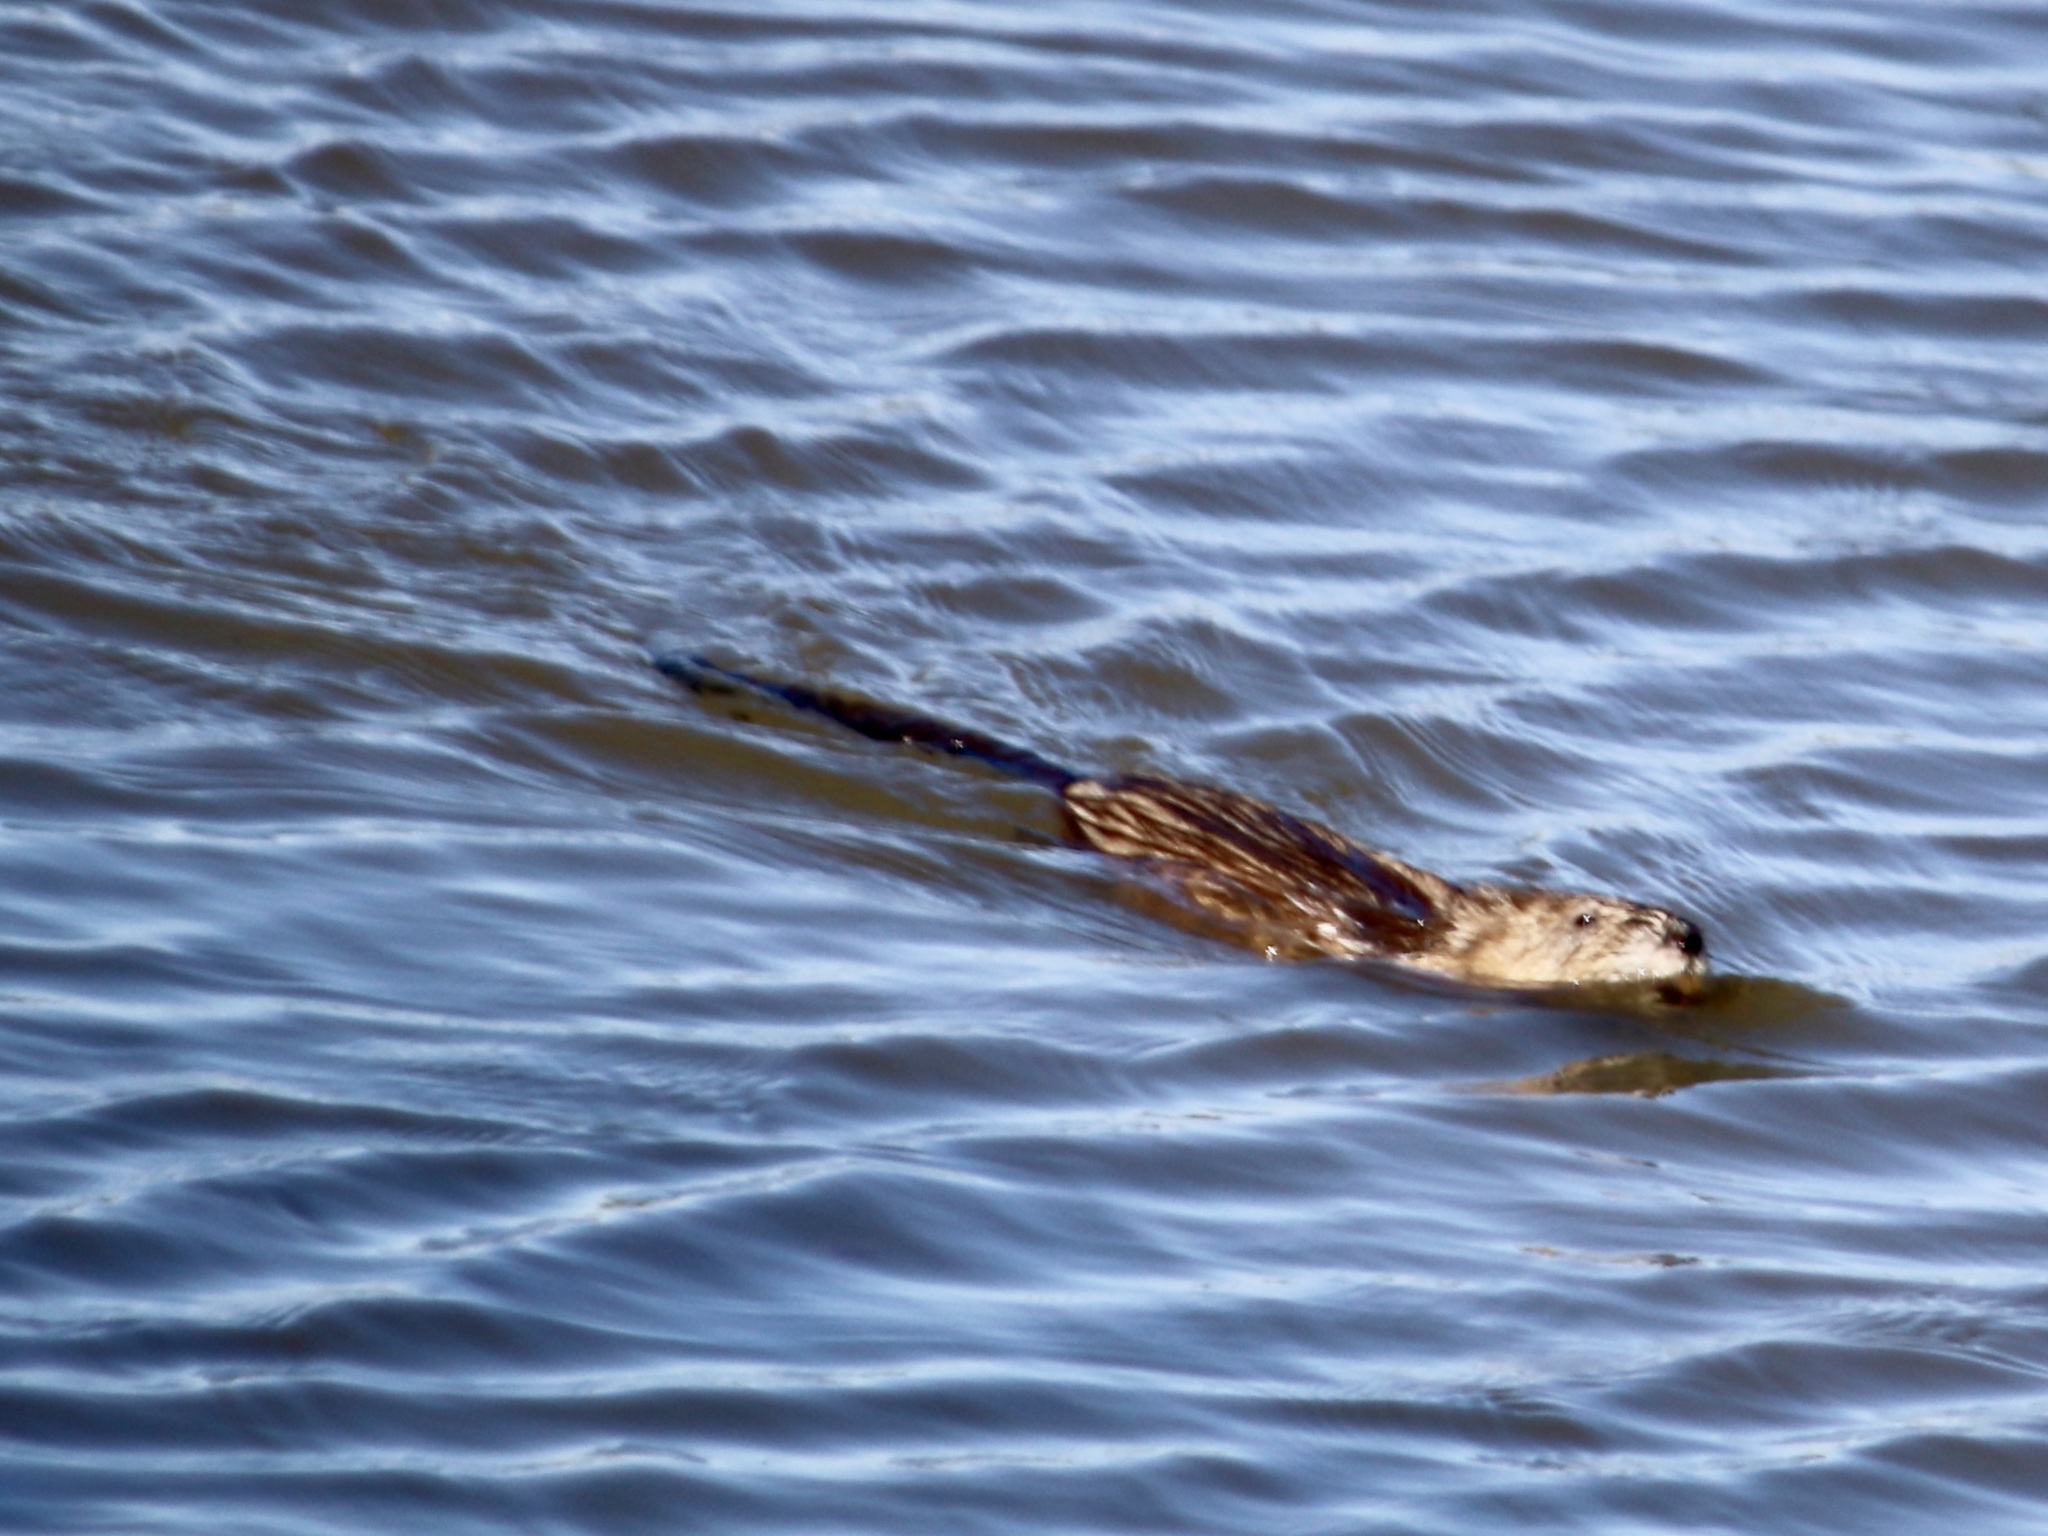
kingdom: Animalia
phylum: Chordata
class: Mammalia
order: Rodentia
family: Cricetidae
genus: Ondatra
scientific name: Ondatra zibethicus
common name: Muskrat
